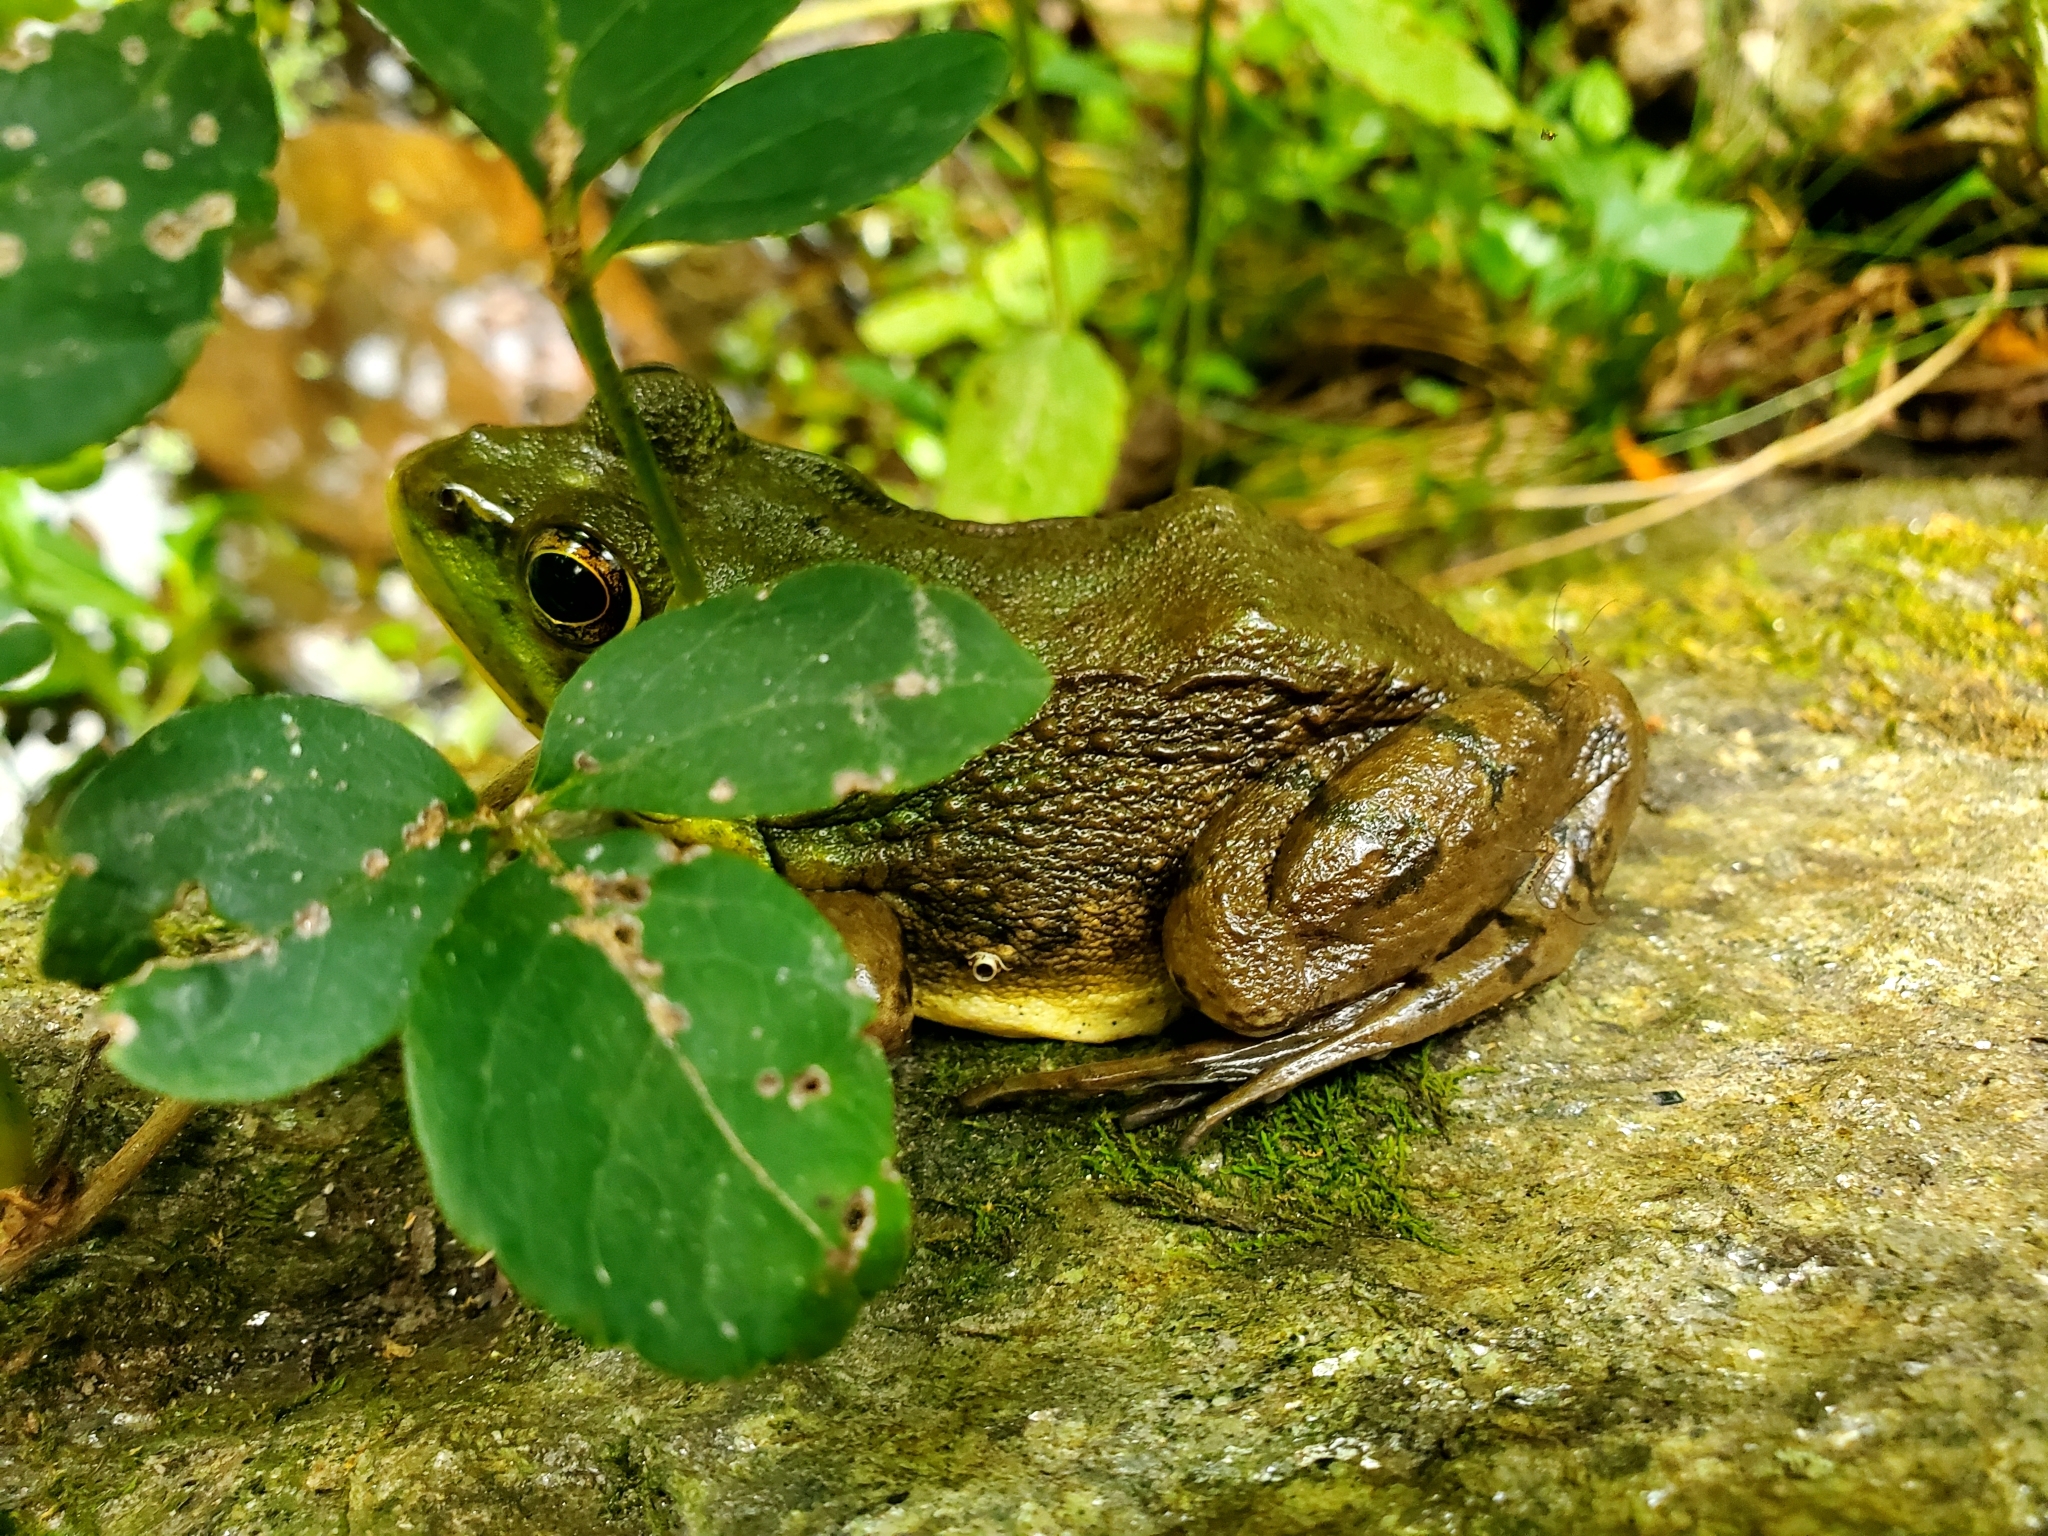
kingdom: Animalia
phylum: Chordata
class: Amphibia
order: Anura
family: Ranidae
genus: Lithobates
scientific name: Lithobates clamitans
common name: Green frog
